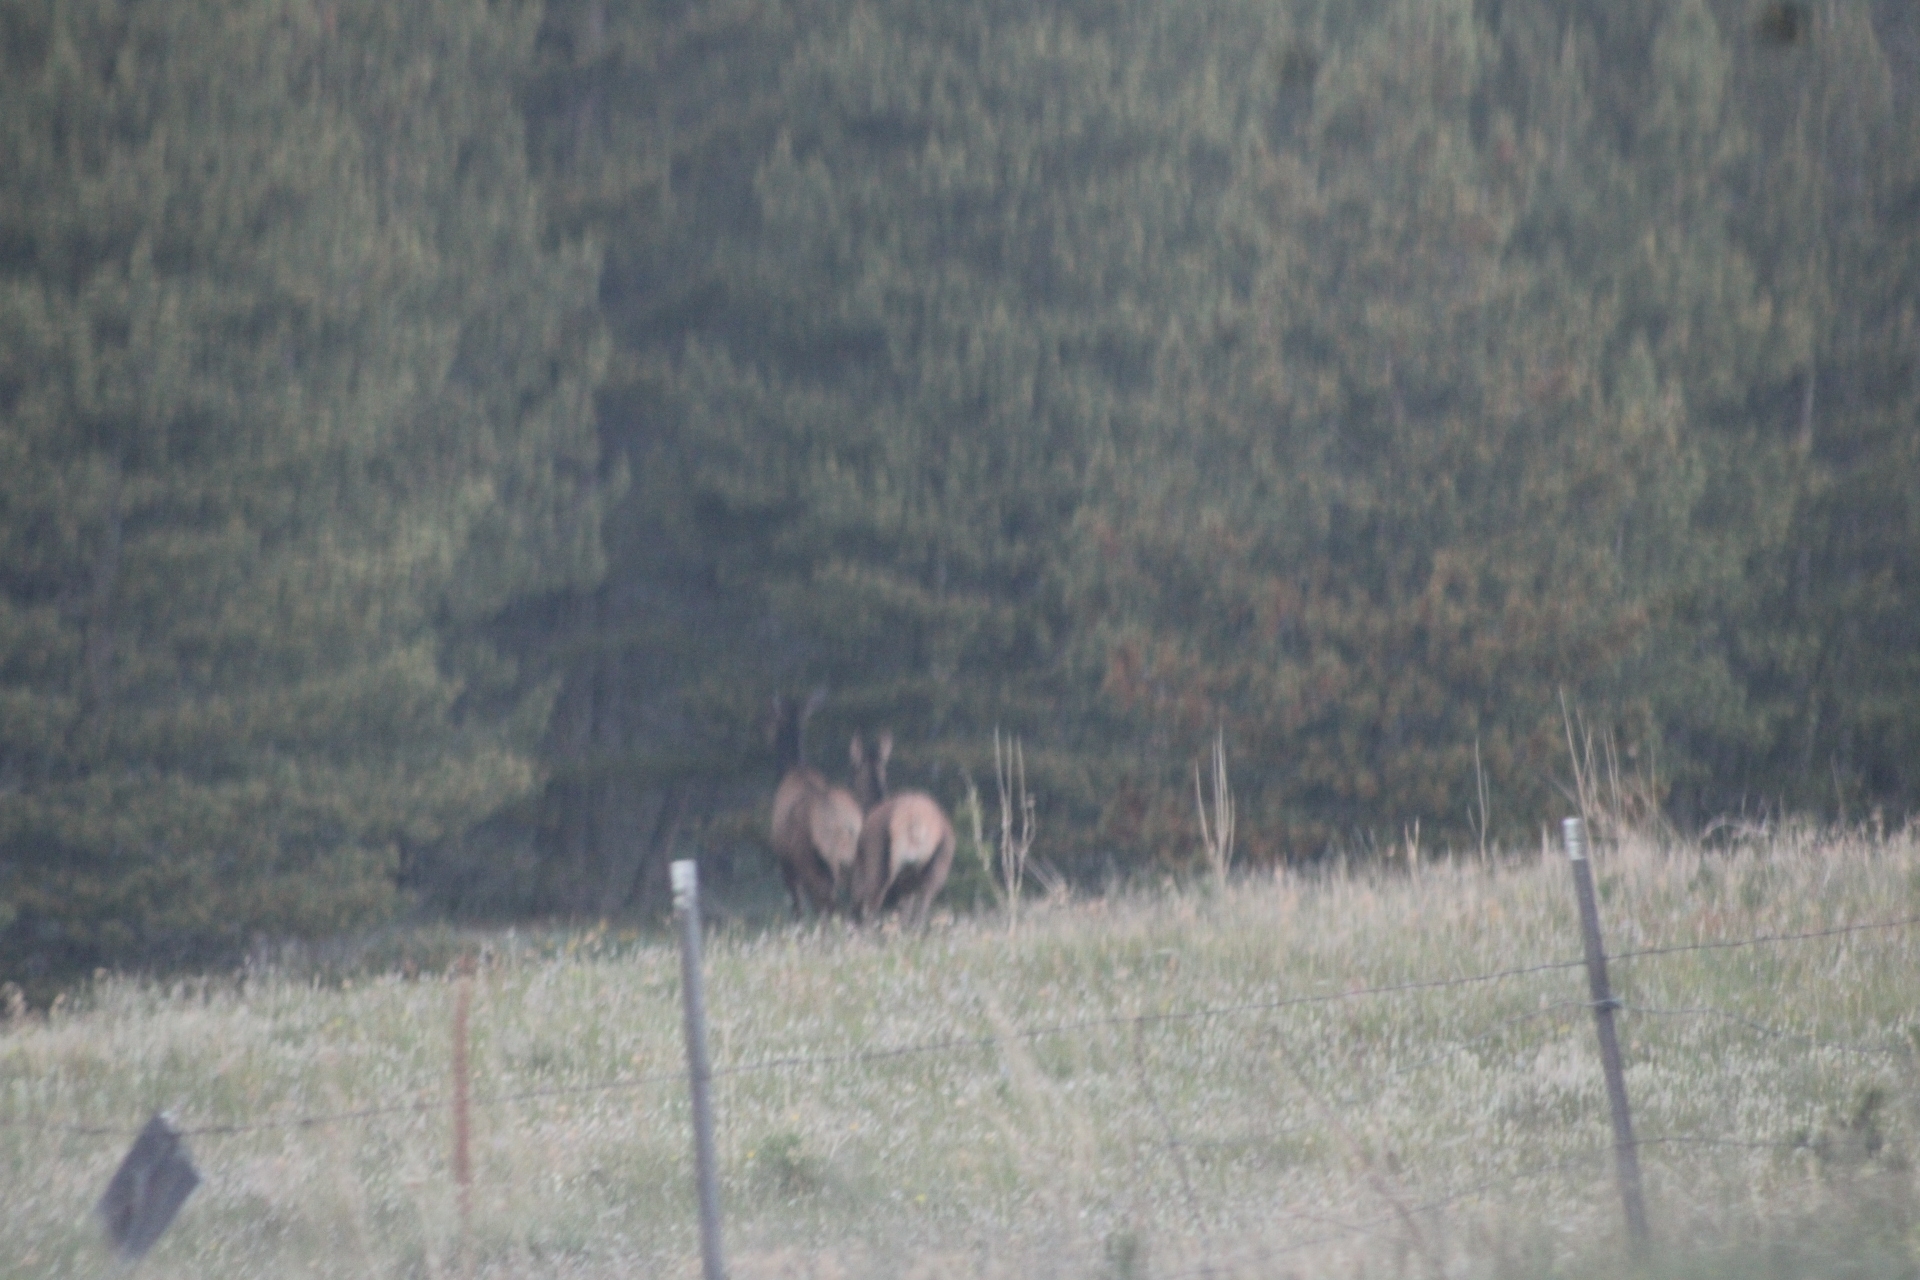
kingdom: Animalia
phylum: Chordata
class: Mammalia
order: Artiodactyla
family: Cervidae
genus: Cervus
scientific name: Cervus elaphus
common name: Red deer
